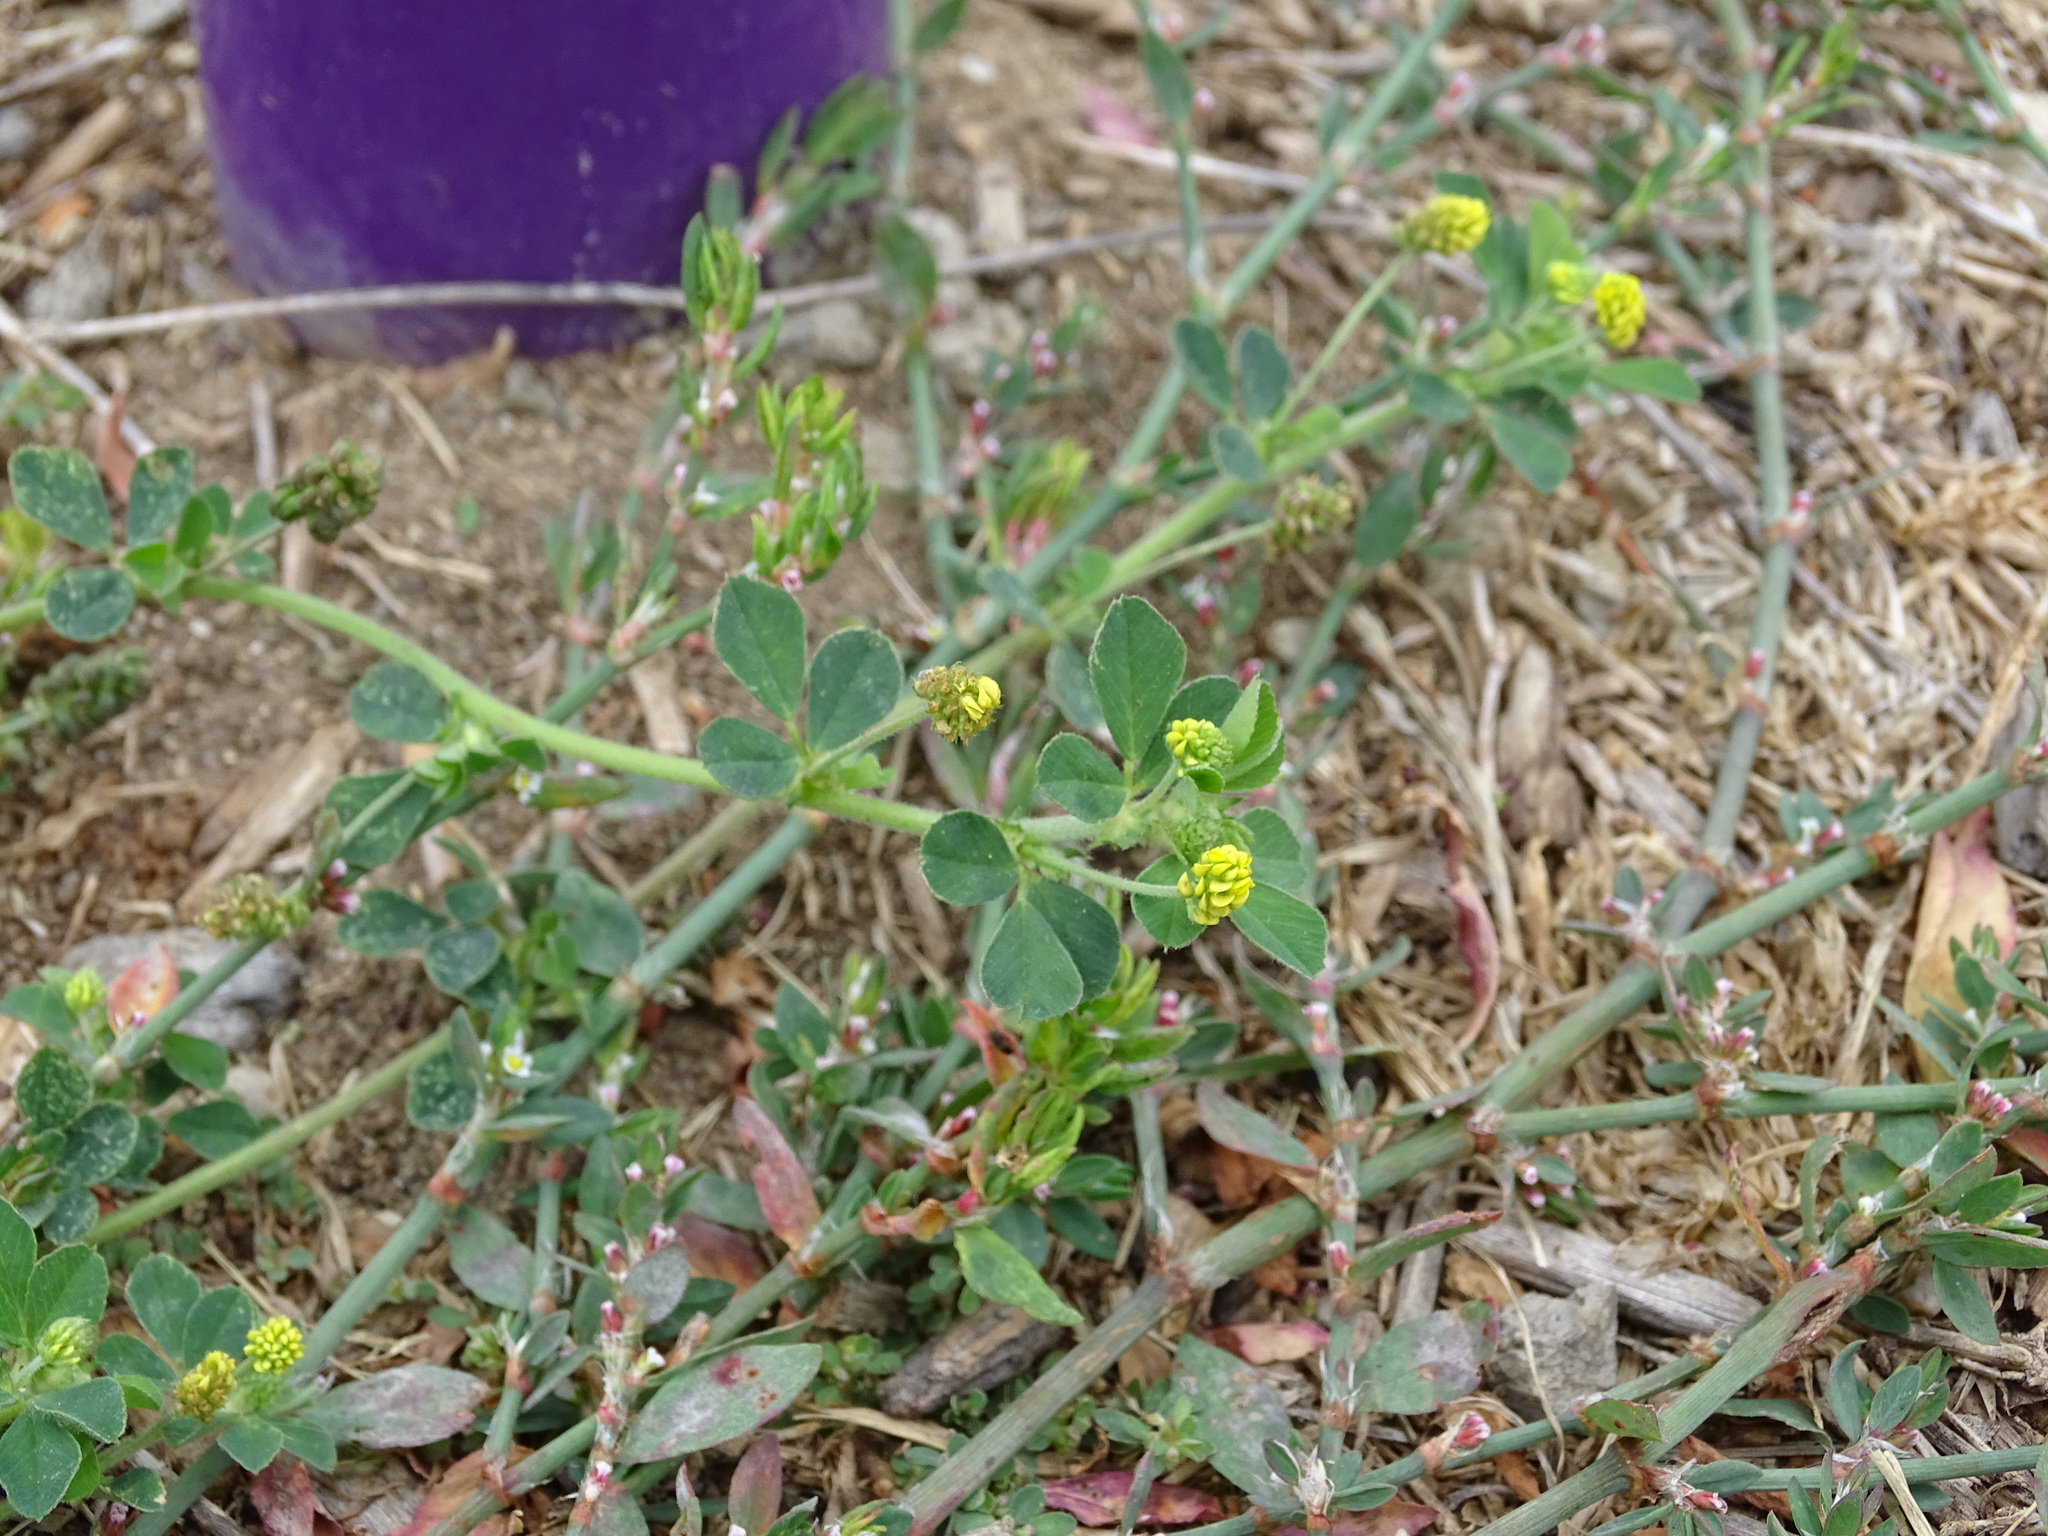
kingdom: Plantae
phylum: Tracheophyta
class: Magnoliopsida
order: Fabales
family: Fabaceae
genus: Medicago
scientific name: Medicago lupulina
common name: Black medick
